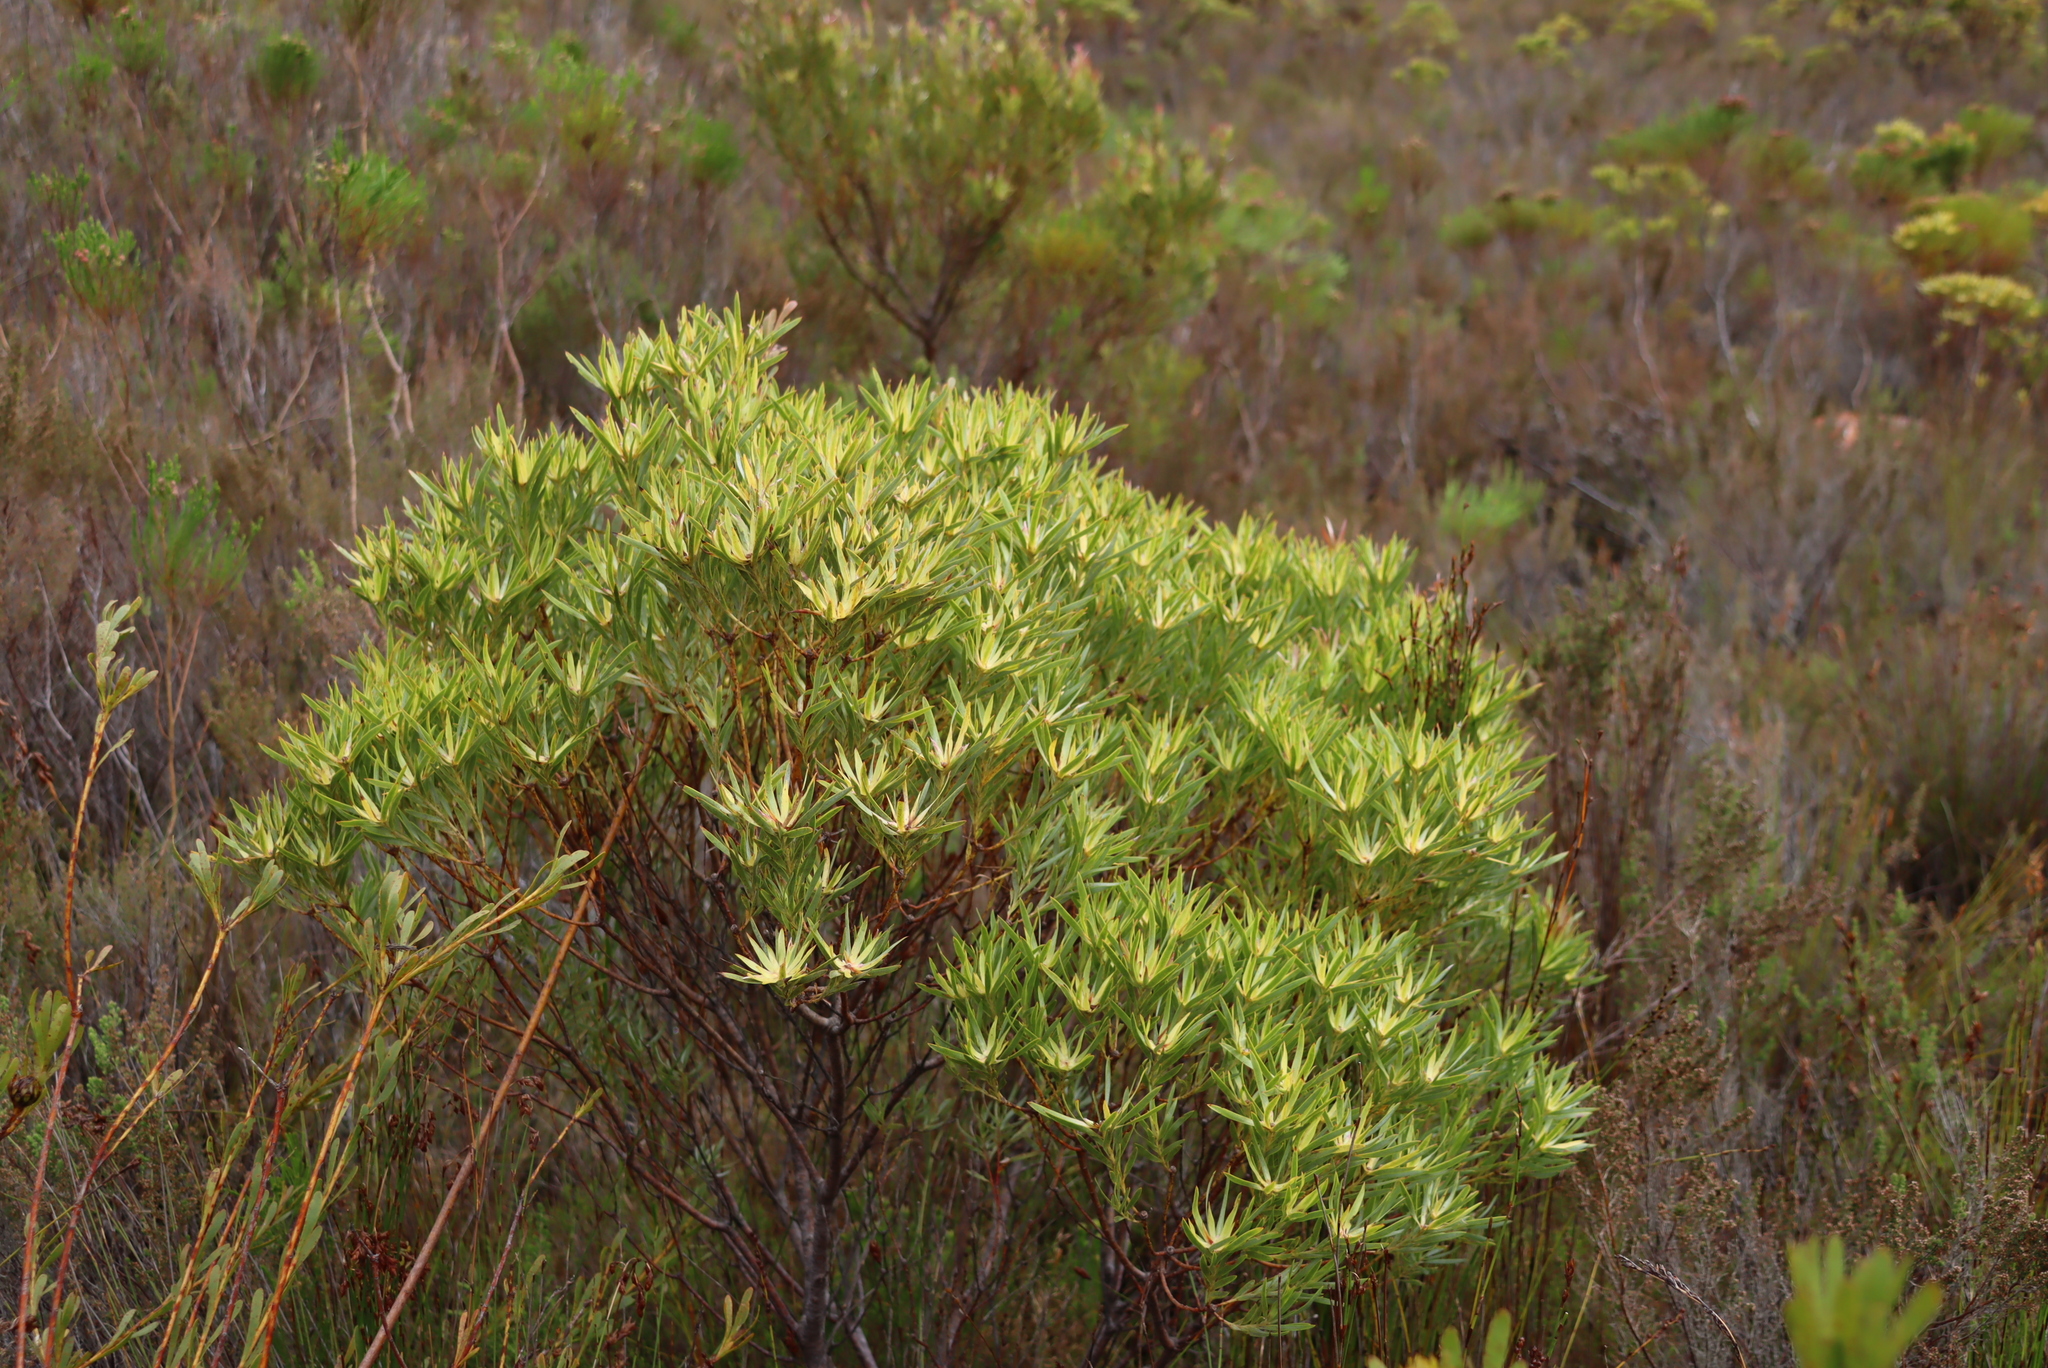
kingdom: Plantae
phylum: Tracheophyta
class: Magnoliopsida
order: Proteales
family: Proteaceae
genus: Leucadendron
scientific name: Leucadendron xanthoconus
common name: Sickle-leaf conebush
